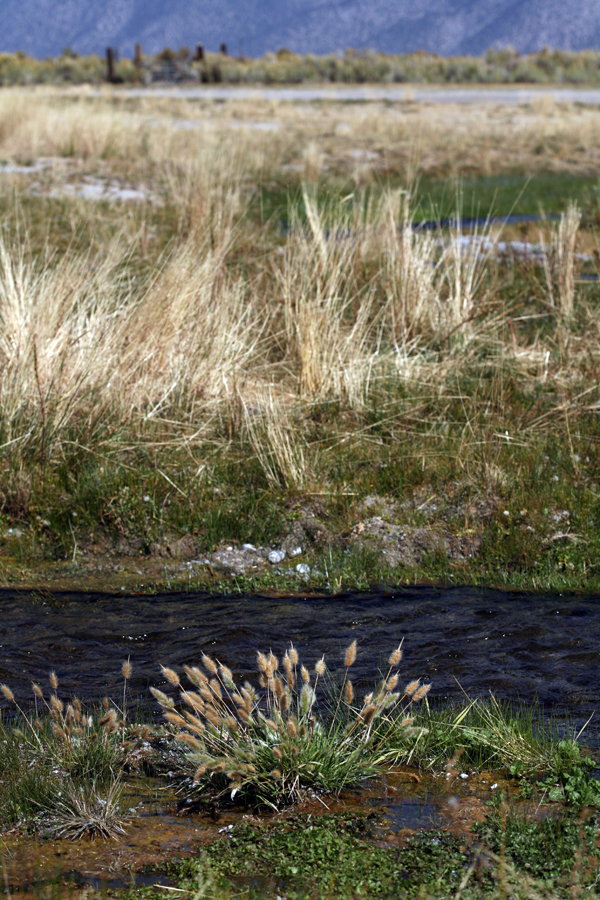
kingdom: Plantae
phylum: Tracheophyta
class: Liliopsida
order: Poales
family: Poaceae
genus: Polypogon
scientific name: Polypogon monspeliensis
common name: Annual rabbitsfoot grass
